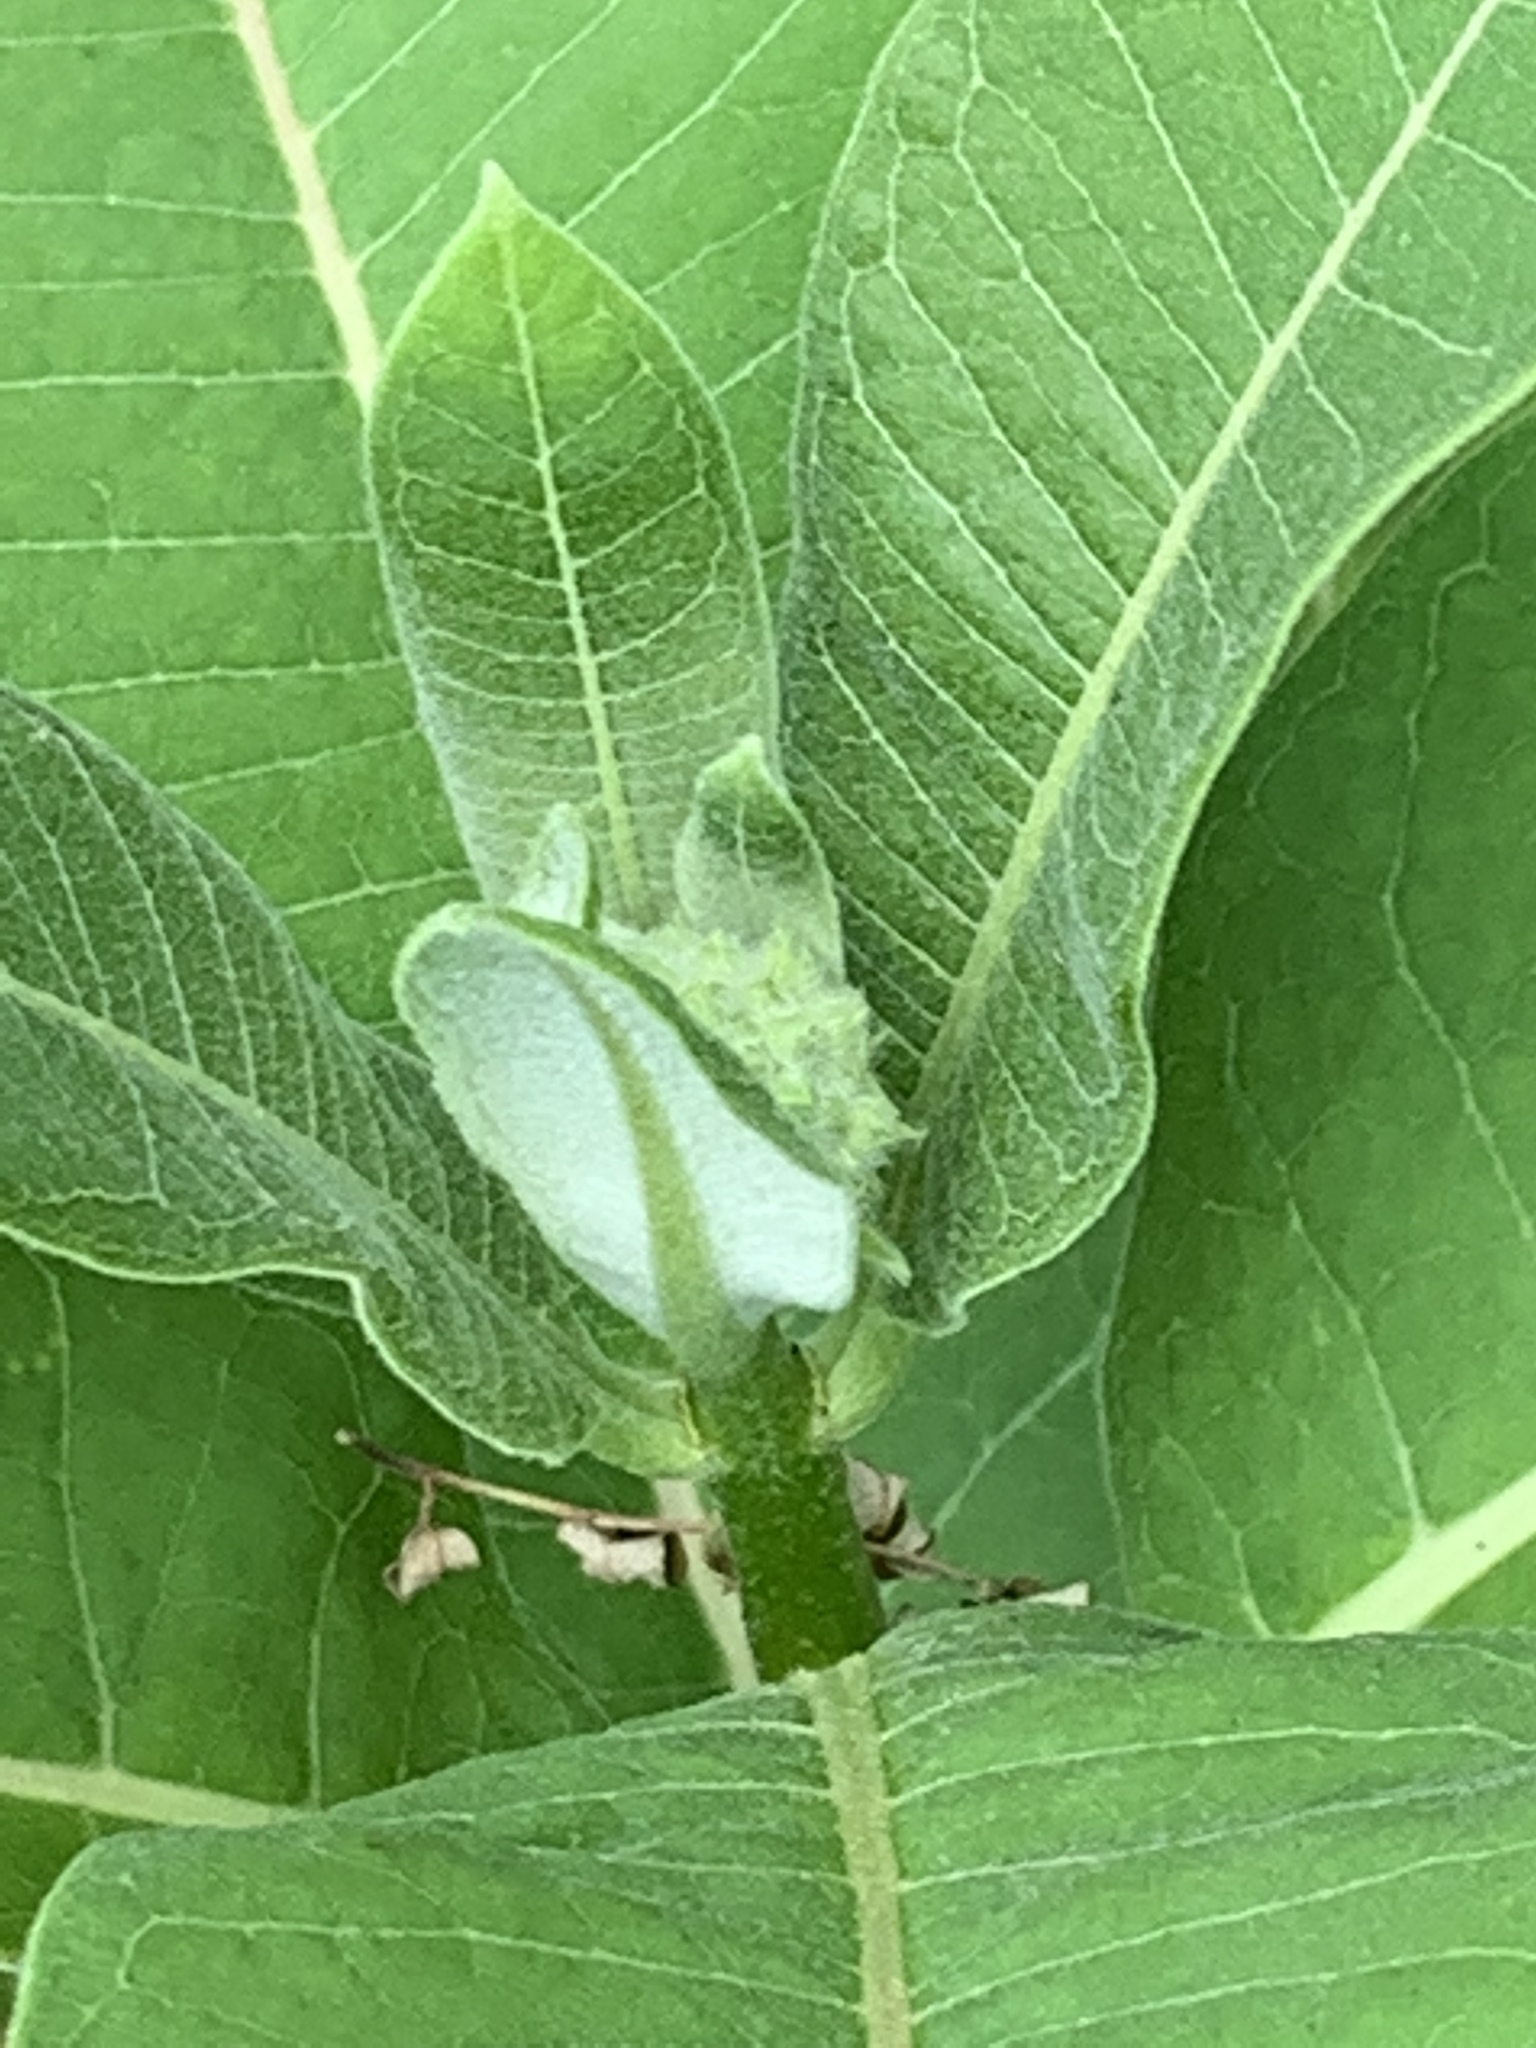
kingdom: Plantae
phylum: Tracheophyta
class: Magnoliopsida
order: Gentianales
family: Apocynaceae
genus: Asclepias
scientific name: Asclepias syriaca
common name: Common milkweed
